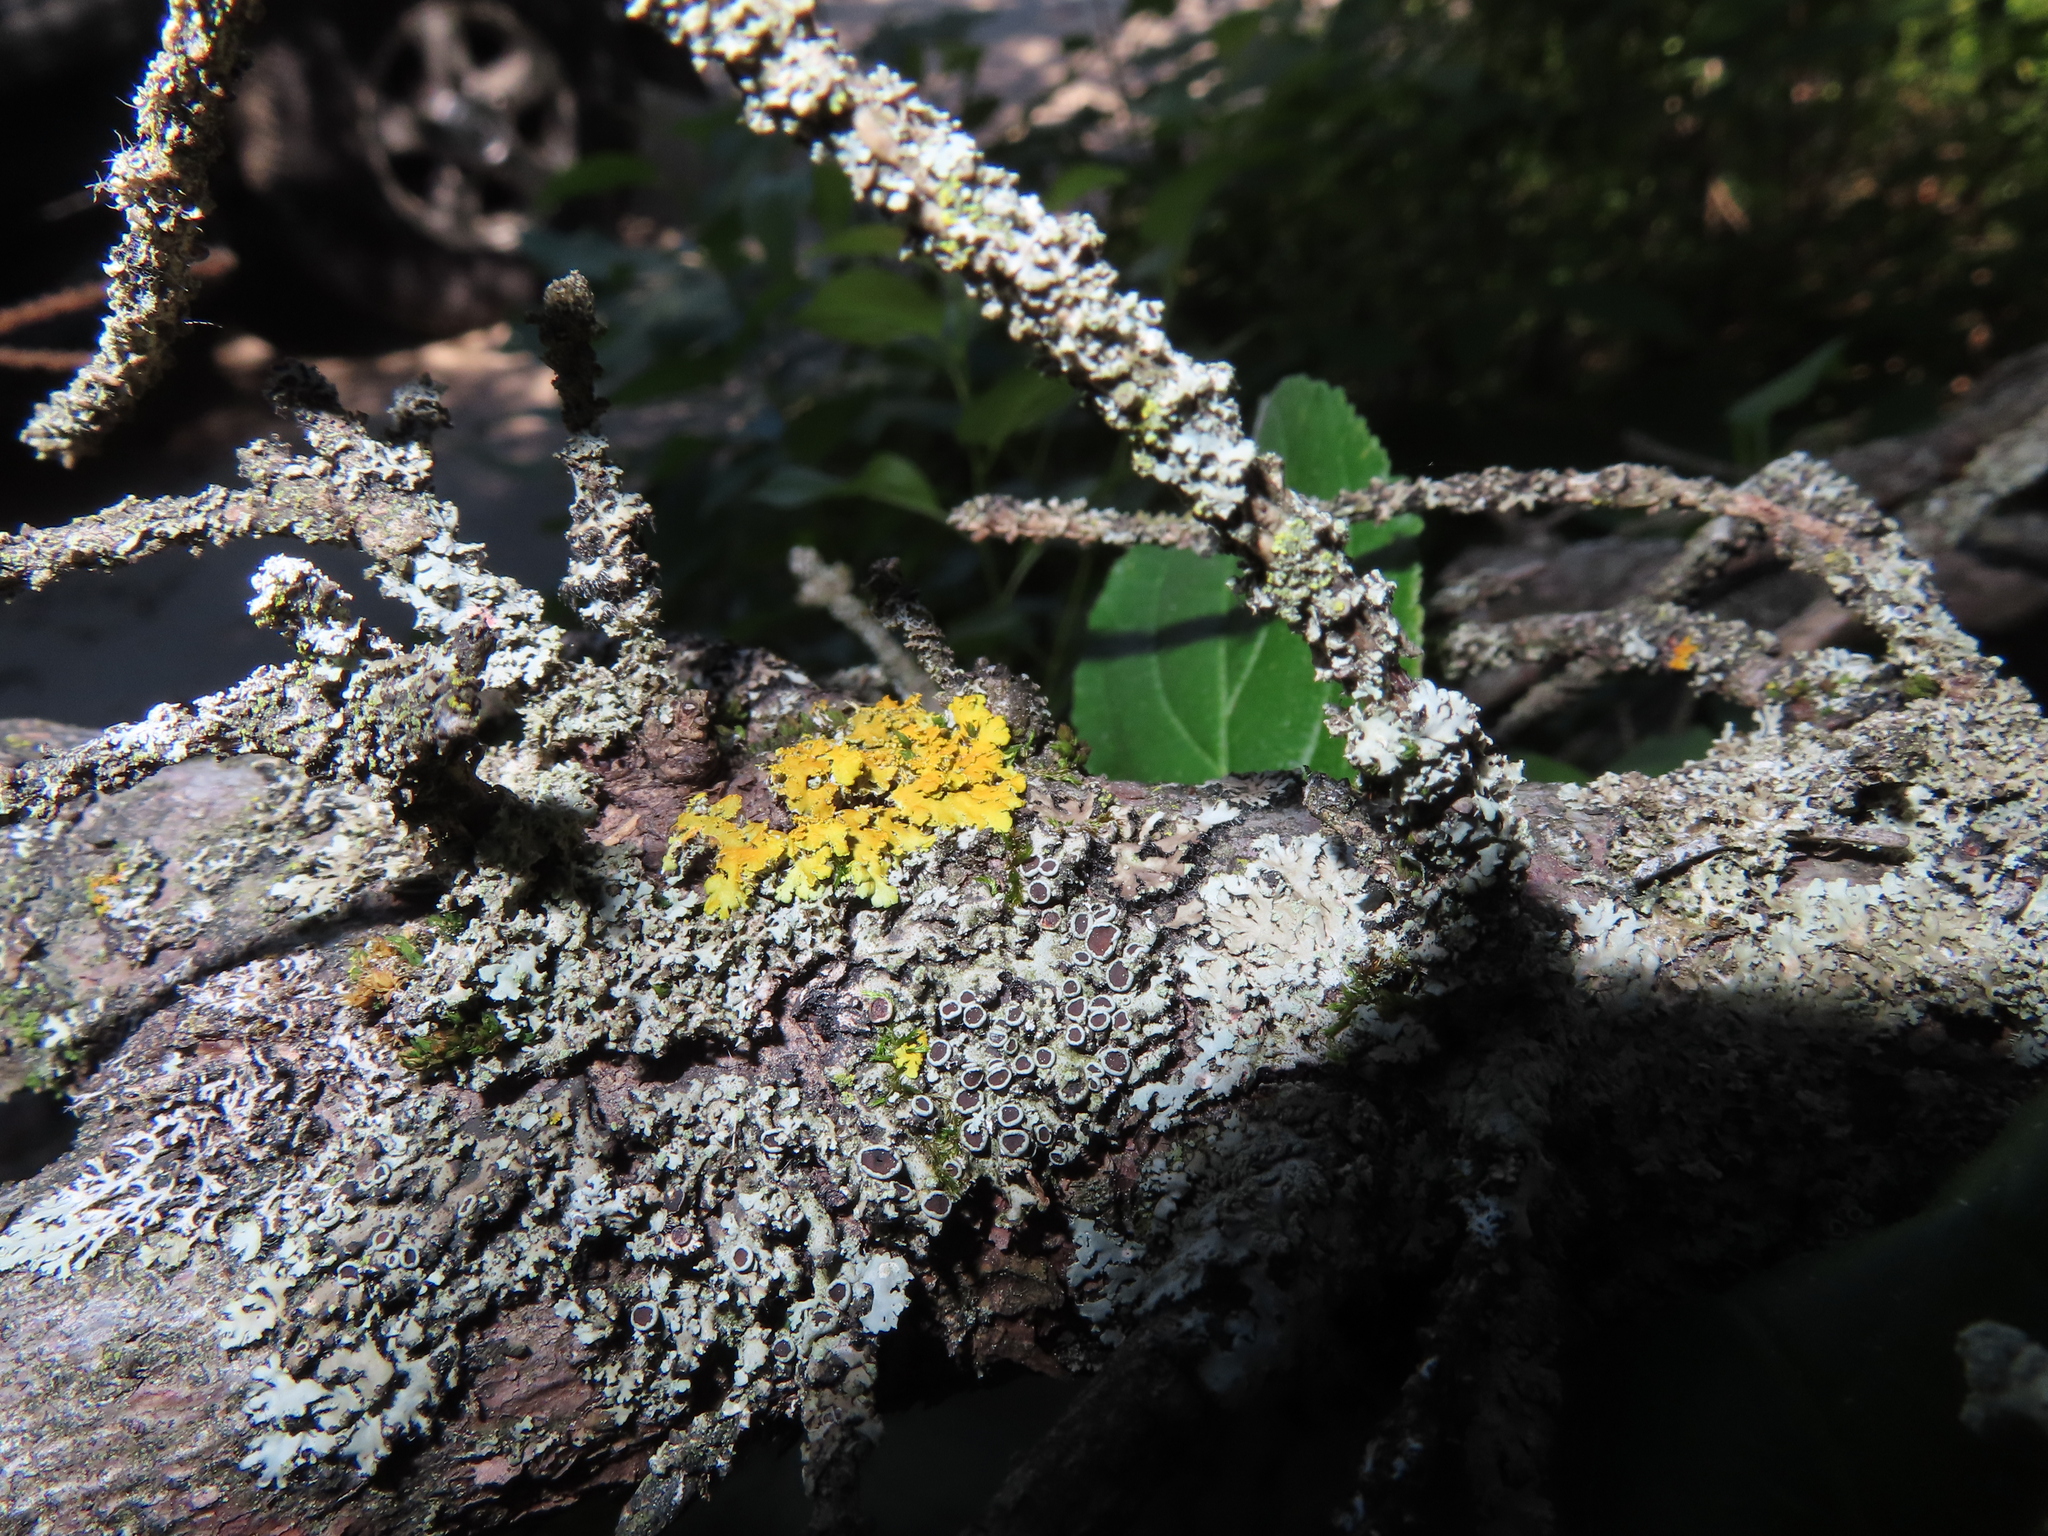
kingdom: Fungi
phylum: Ascomycota
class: Lecanoromycetes
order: Caliciales
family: Physciaceae
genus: Physcia
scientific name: Physcia
